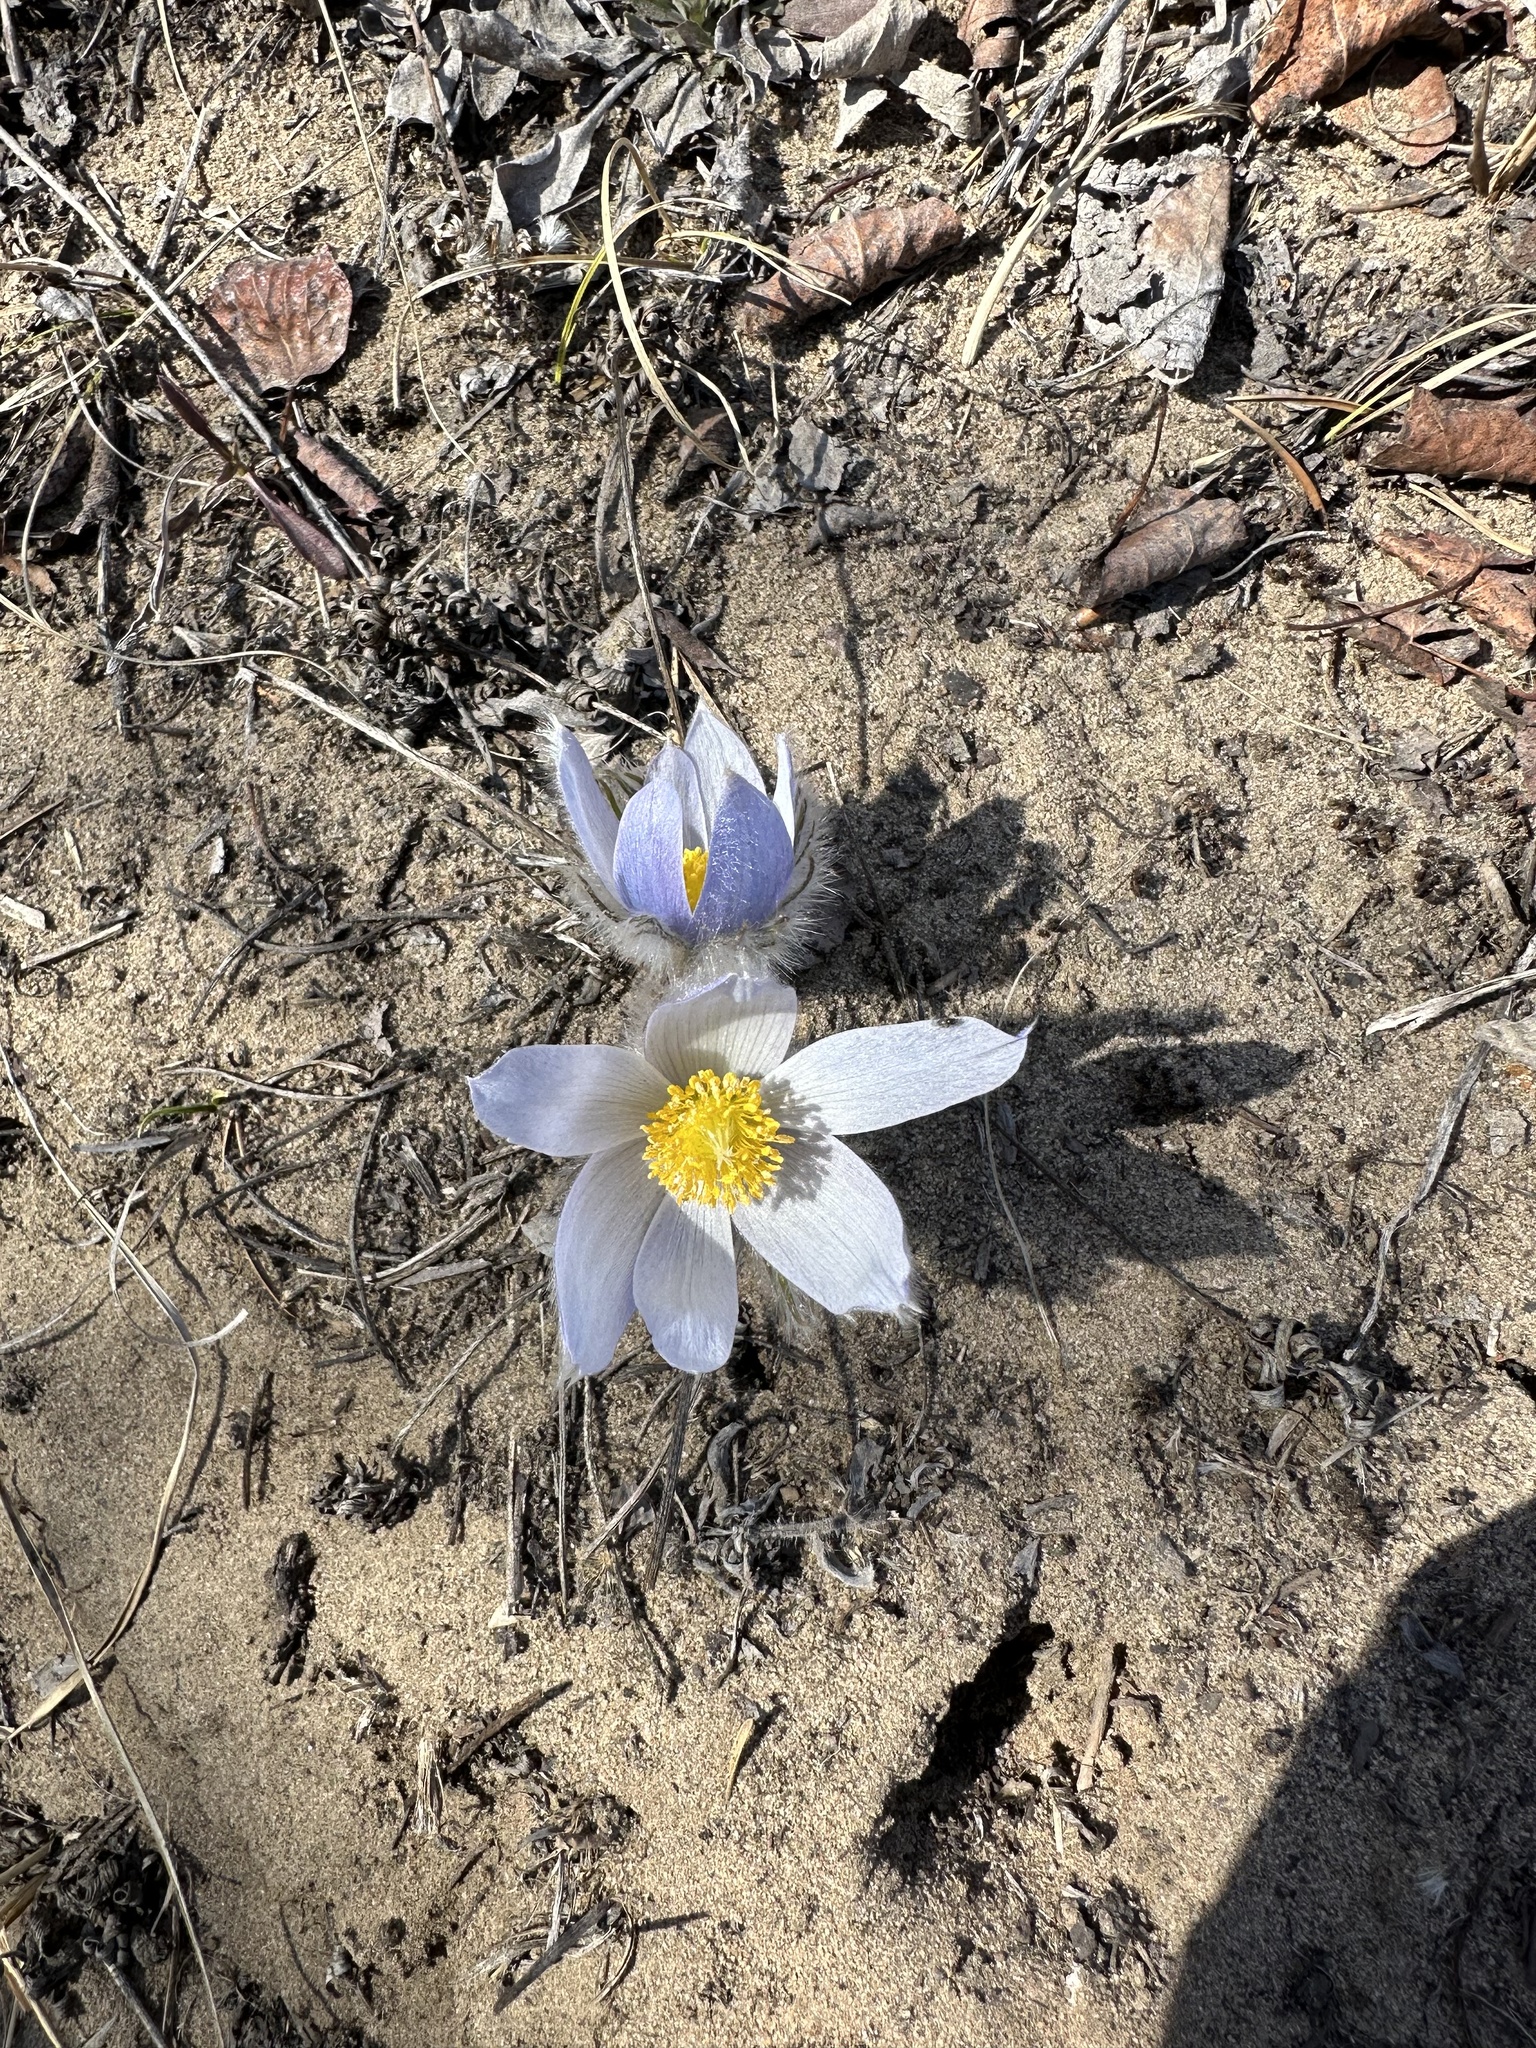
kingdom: Plantae
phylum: Tracheophyta
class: Magnoliopsida
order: Ranunculales
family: Ranunculaceae
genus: Pulsatilla
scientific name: Pulsatilla nuttalliana
